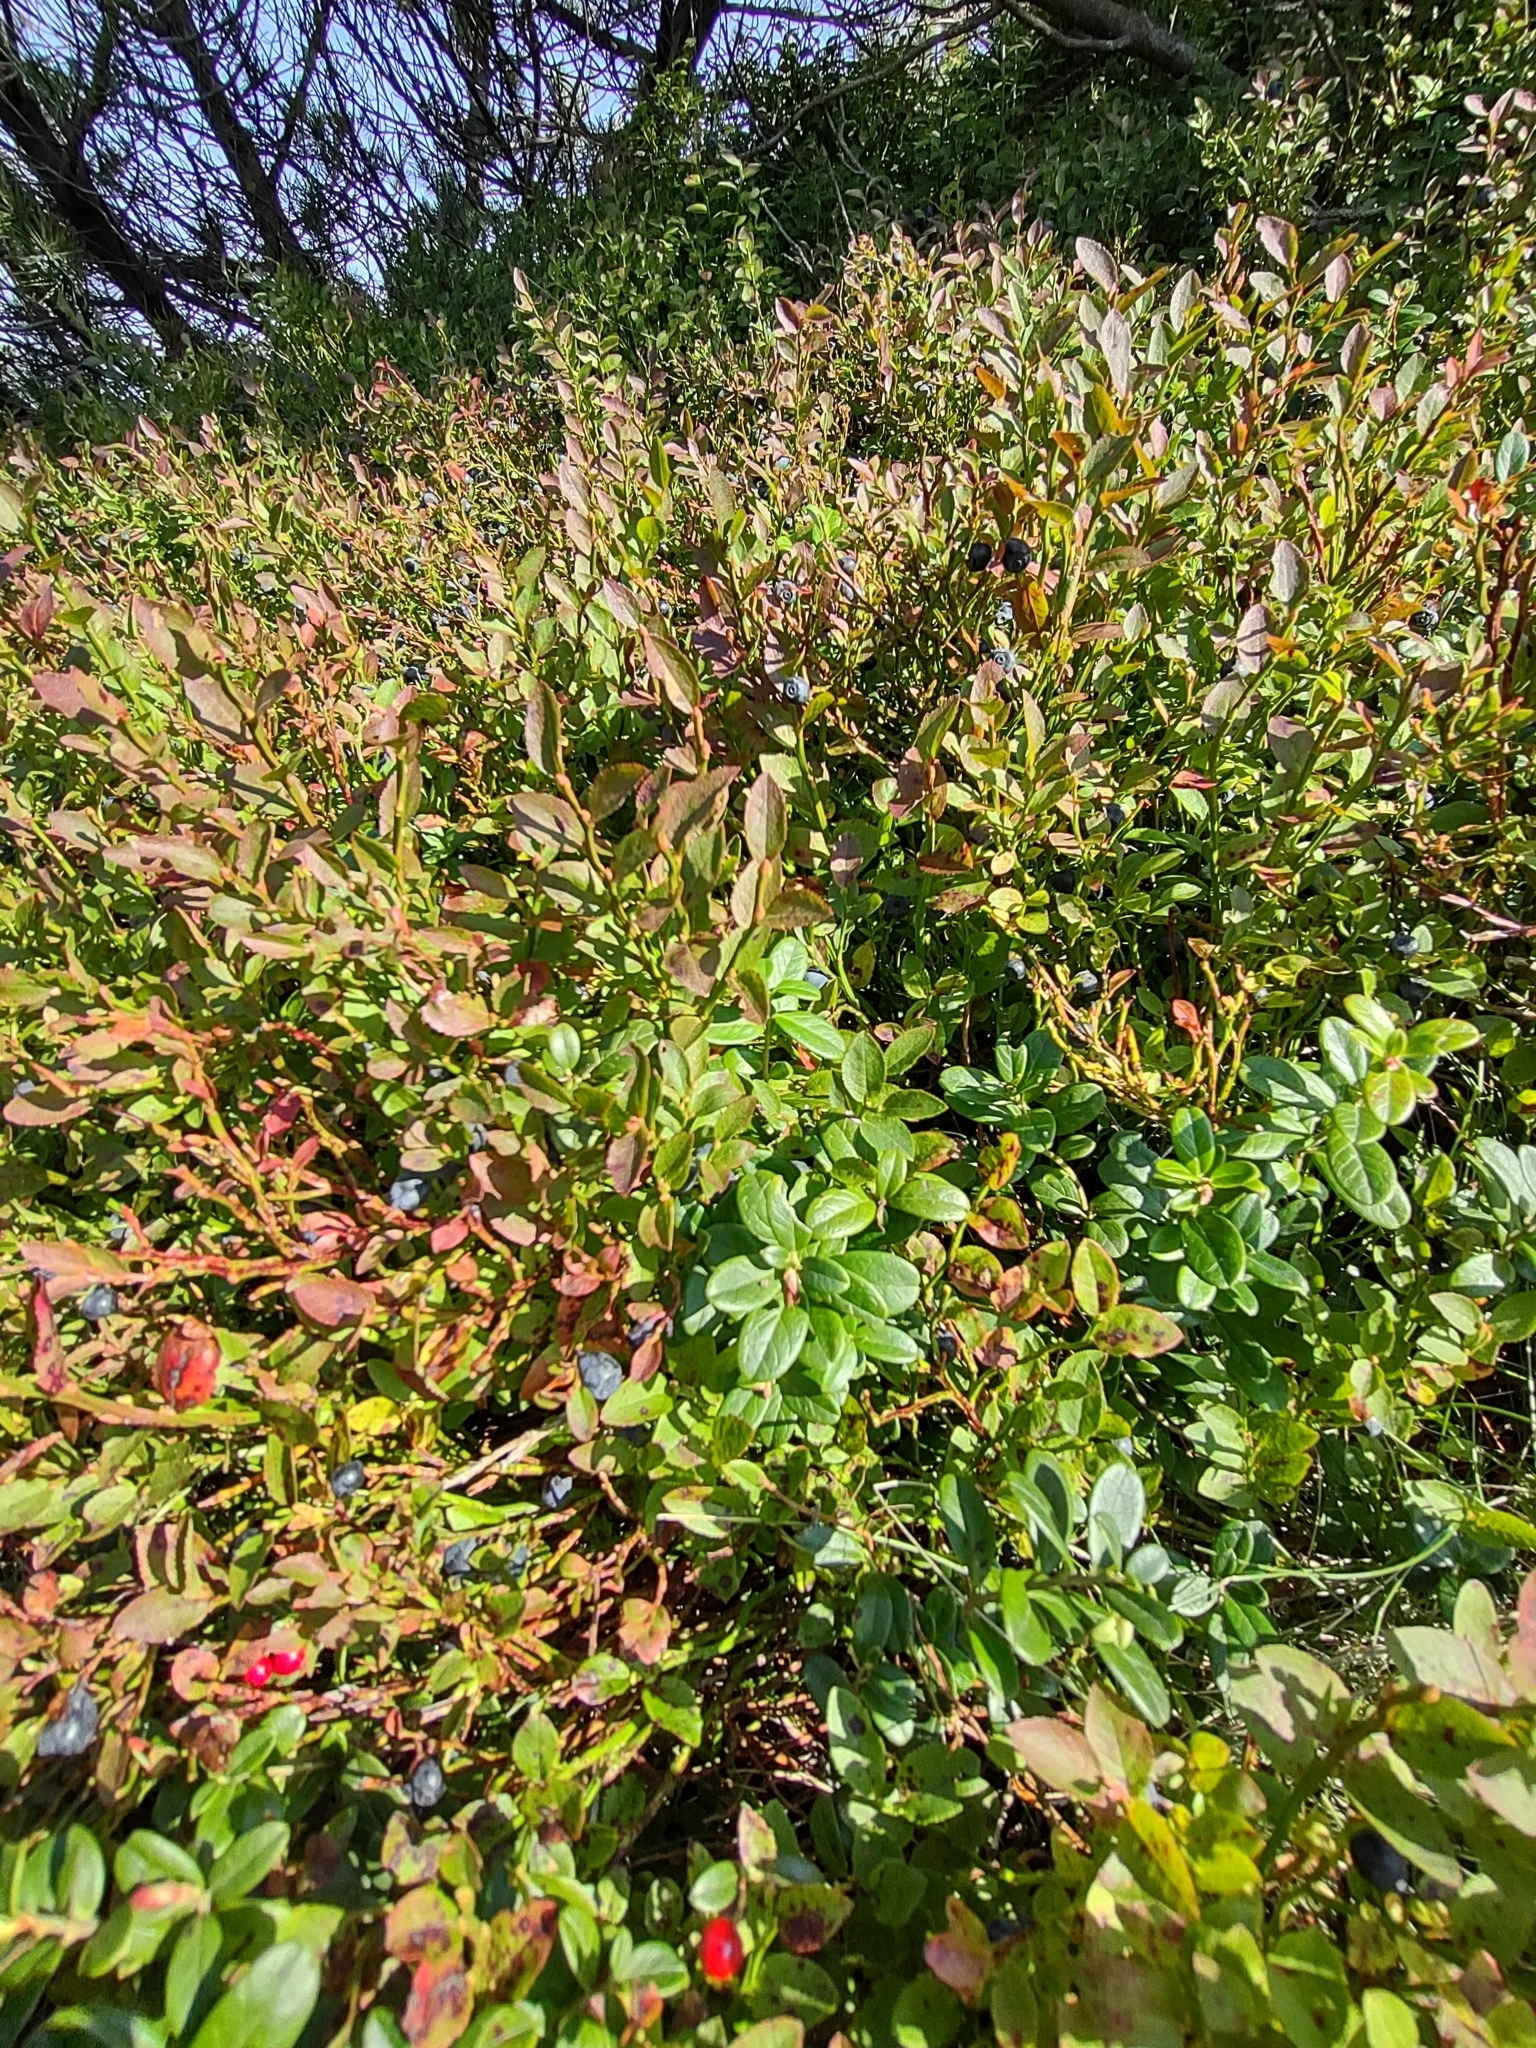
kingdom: Plantae
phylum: Tracheophyta
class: Magnoliopsida
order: Ericales
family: Ericaceae
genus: Vaccinium
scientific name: Vaccinium myrtillus
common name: Bilberry
